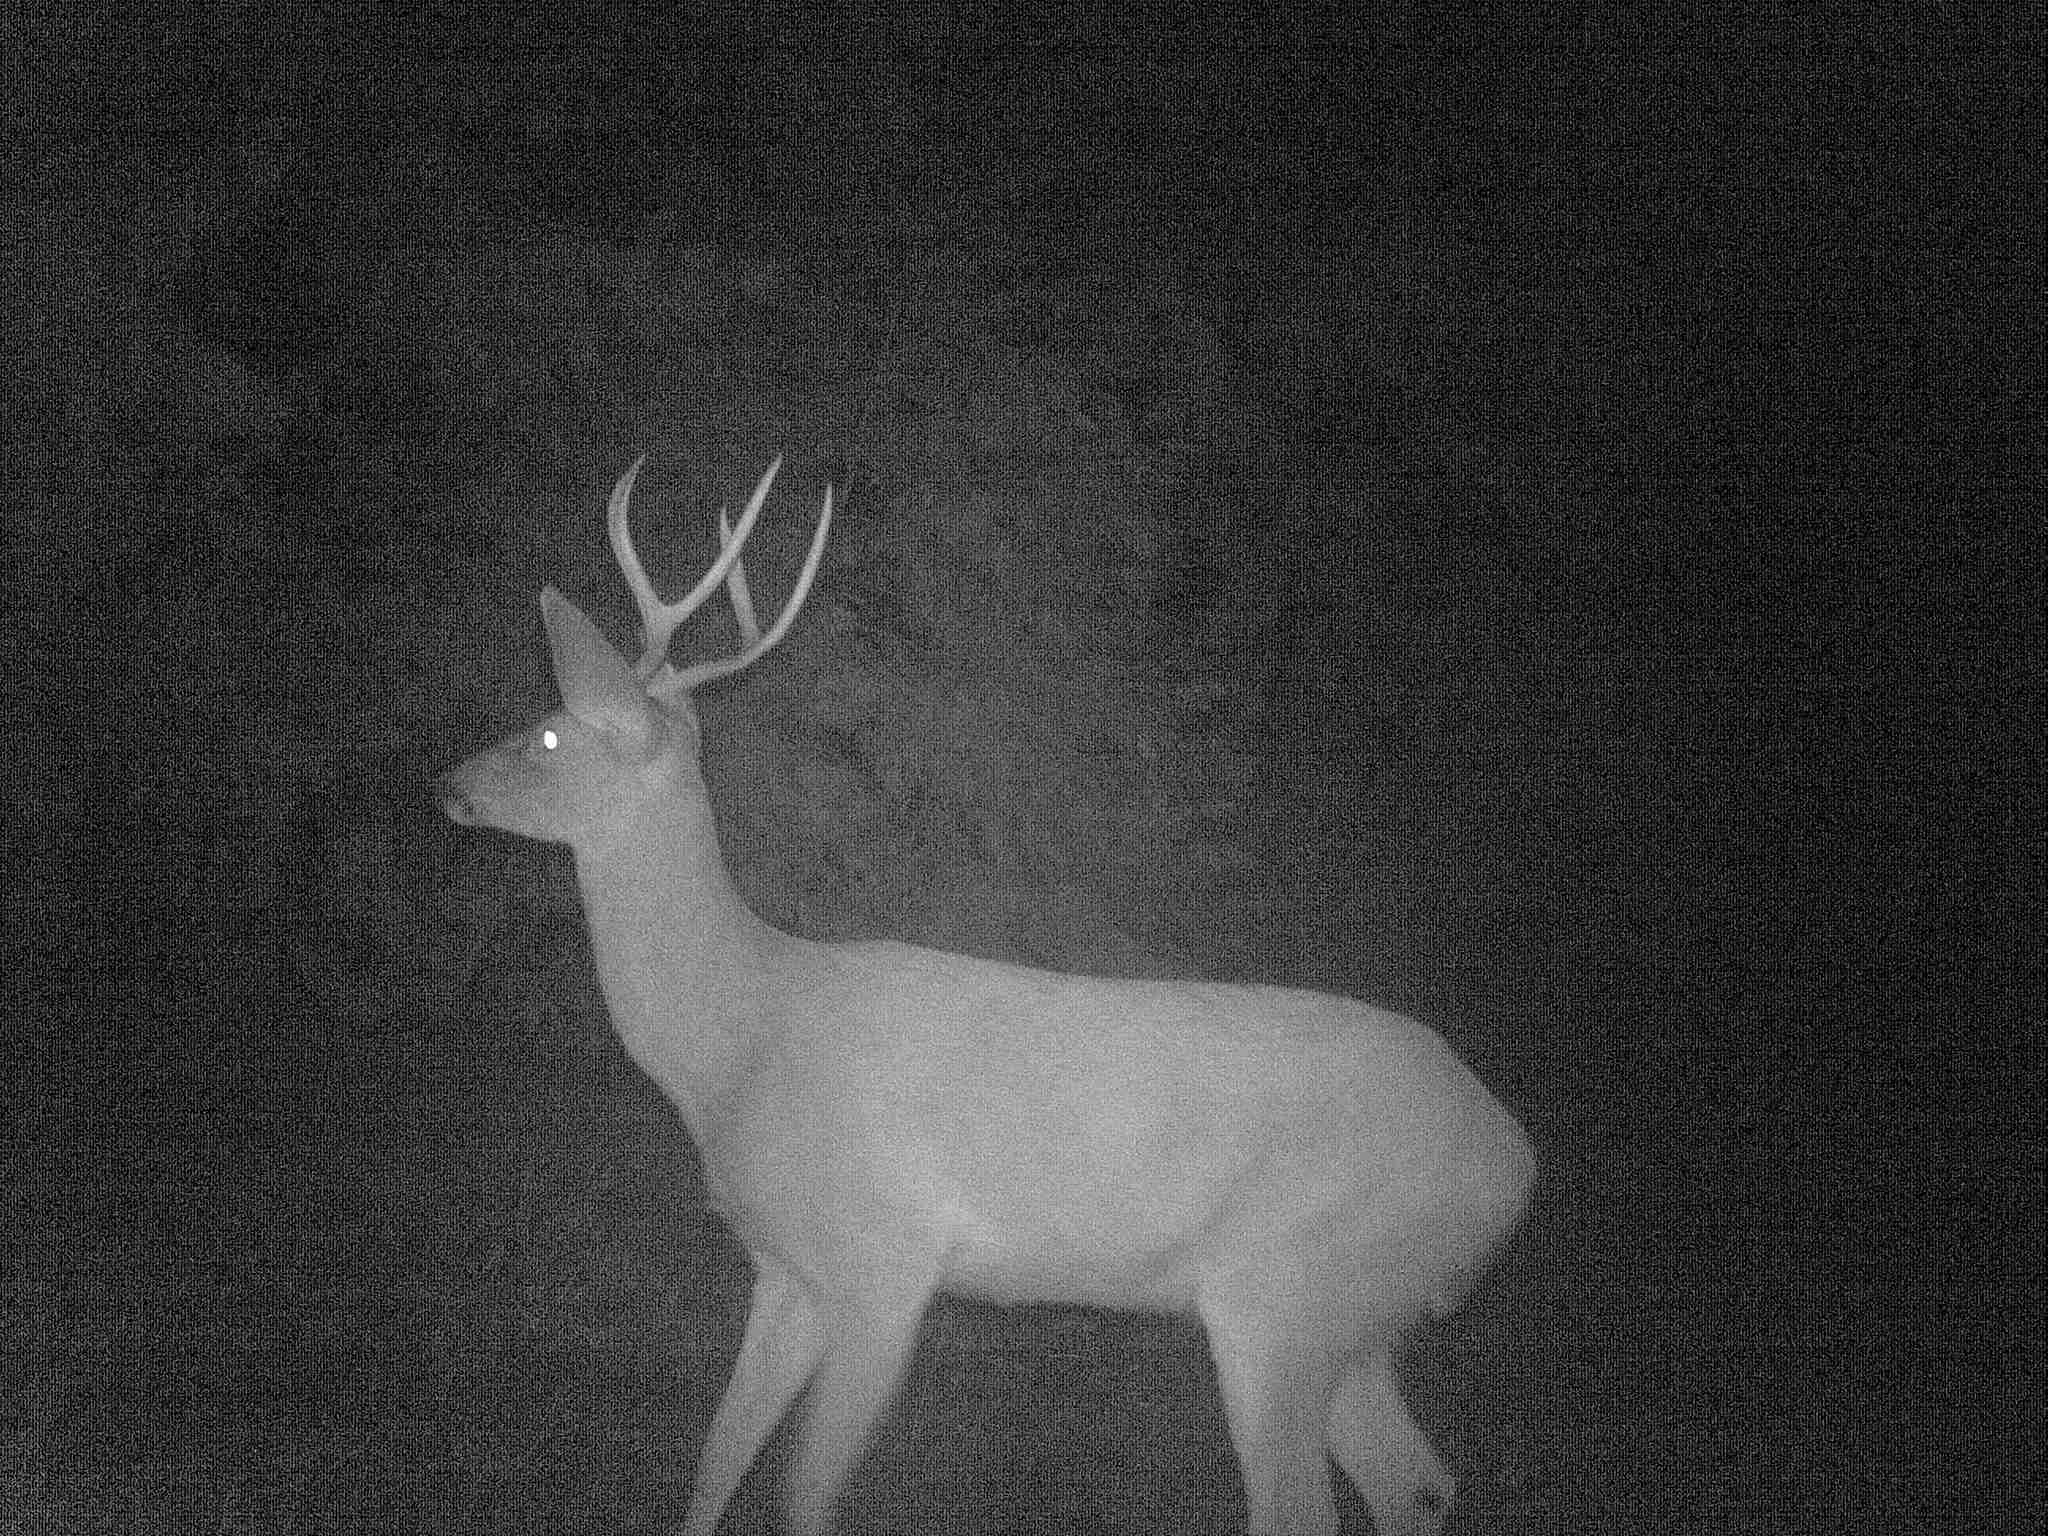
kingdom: Animalia
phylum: Chordata
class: Mammalia
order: Artiodactyla
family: Cervidae
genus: Odocoileus
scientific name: Odocoileus hemionus
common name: Mule deer
